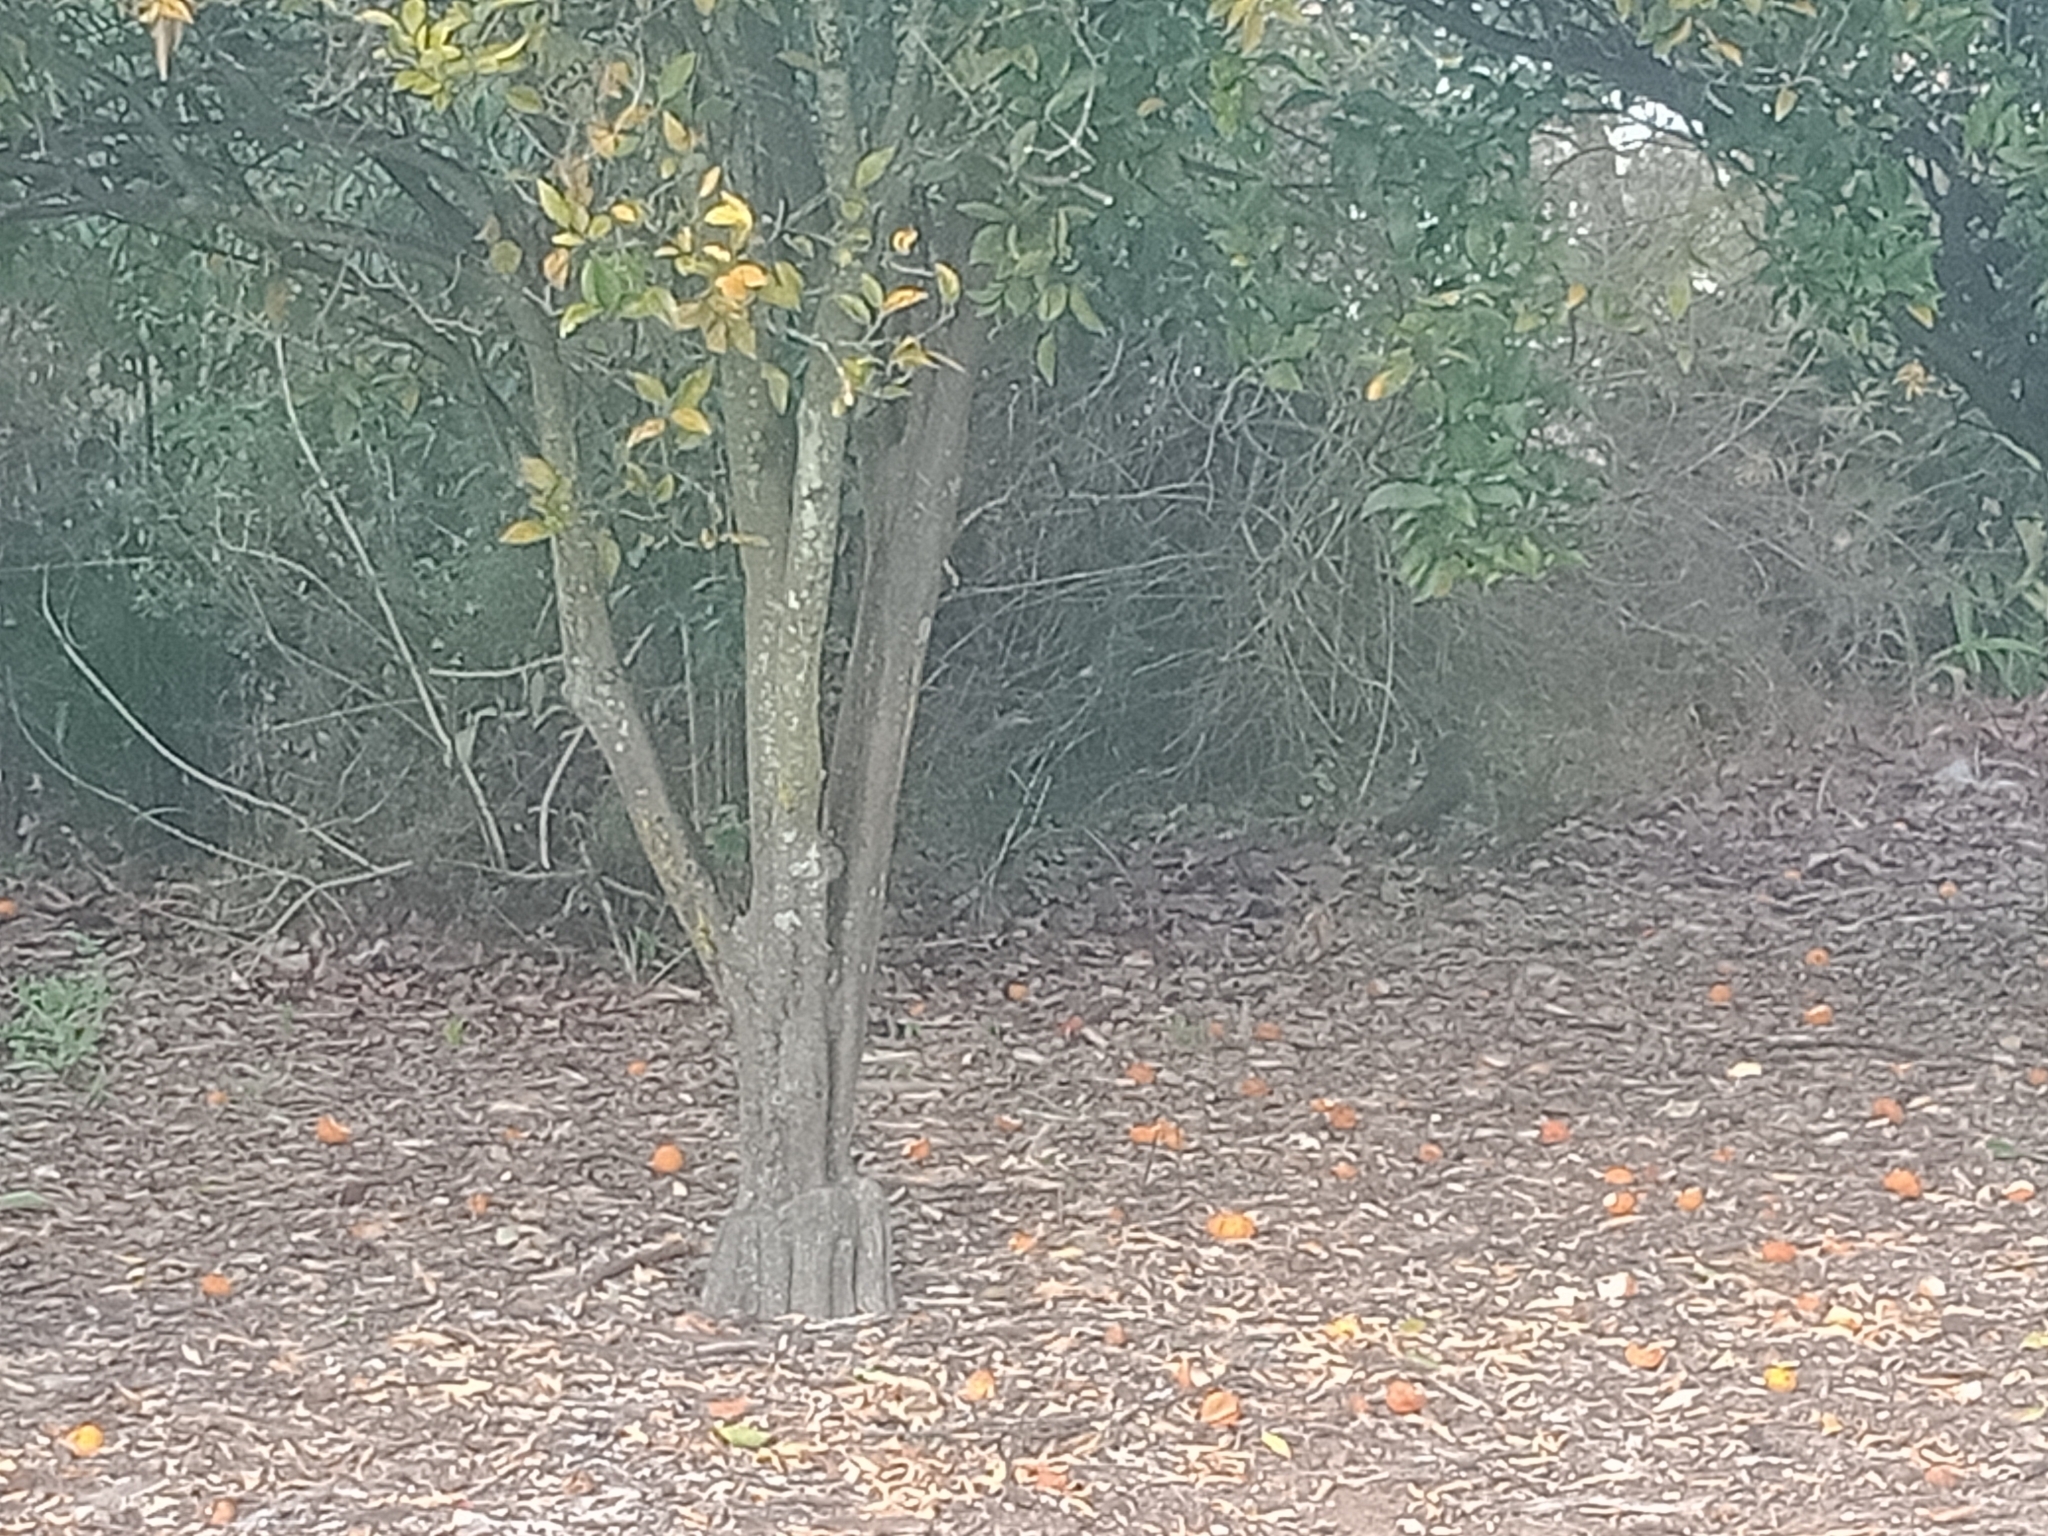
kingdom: Animalia
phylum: Chordata
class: Aves
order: Passeriformes
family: Ptilonorhynchidae
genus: Ptilonorhynchus
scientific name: Ptilonorhynchus violaceus
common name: Satin bowerbird
